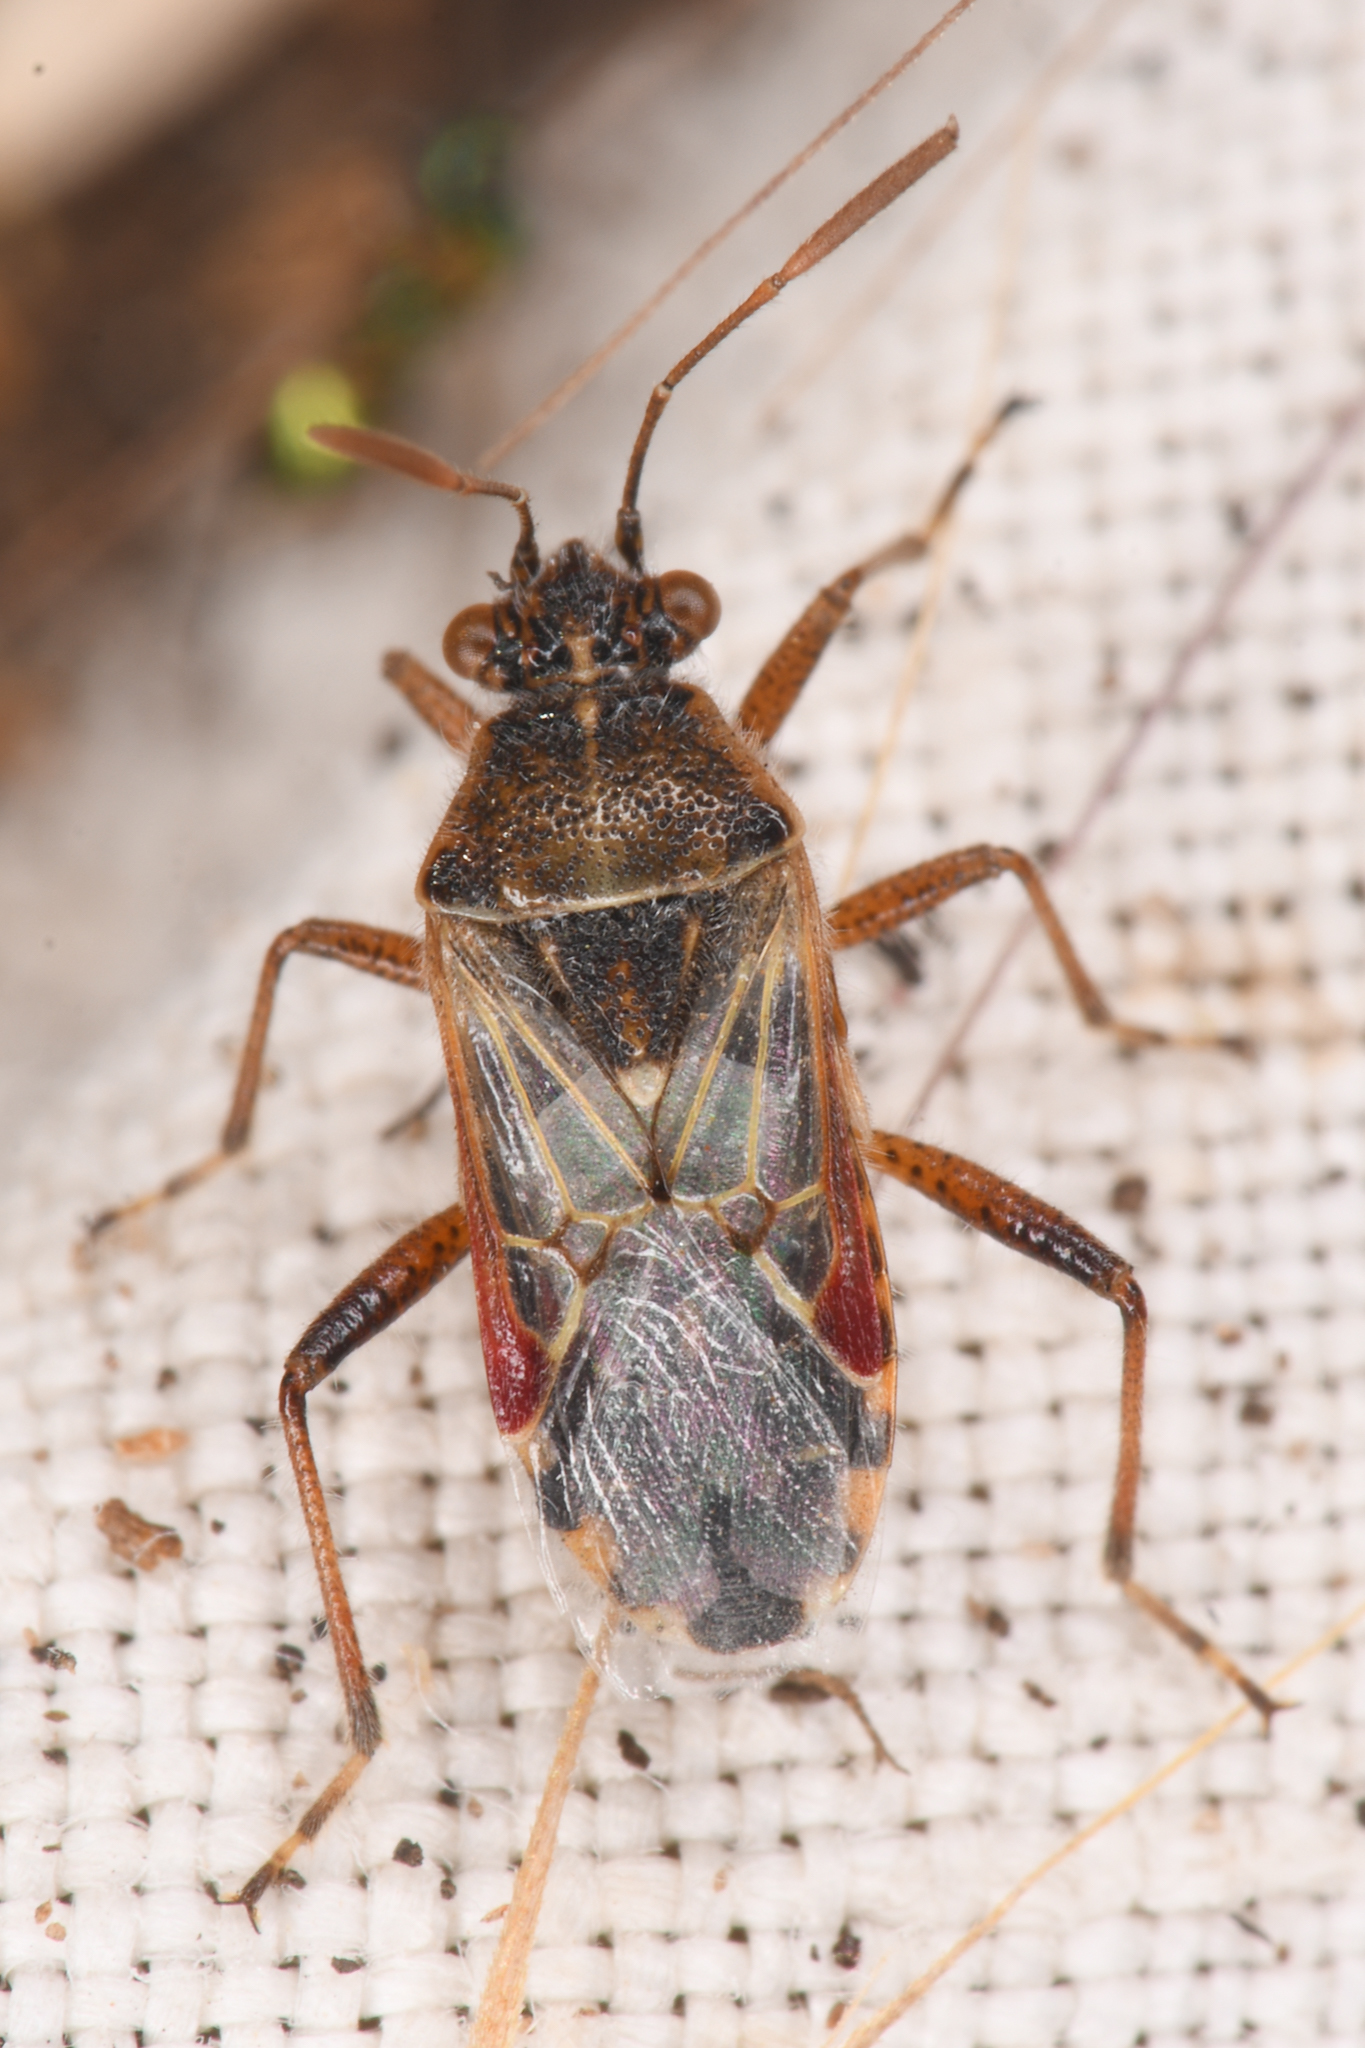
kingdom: Animalia
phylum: Arthropoda
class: Insecta
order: Hemiptera
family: Rhopalidae
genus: Liorhyssus
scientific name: Liorhyssus hyalinus
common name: Scentless plant bug
